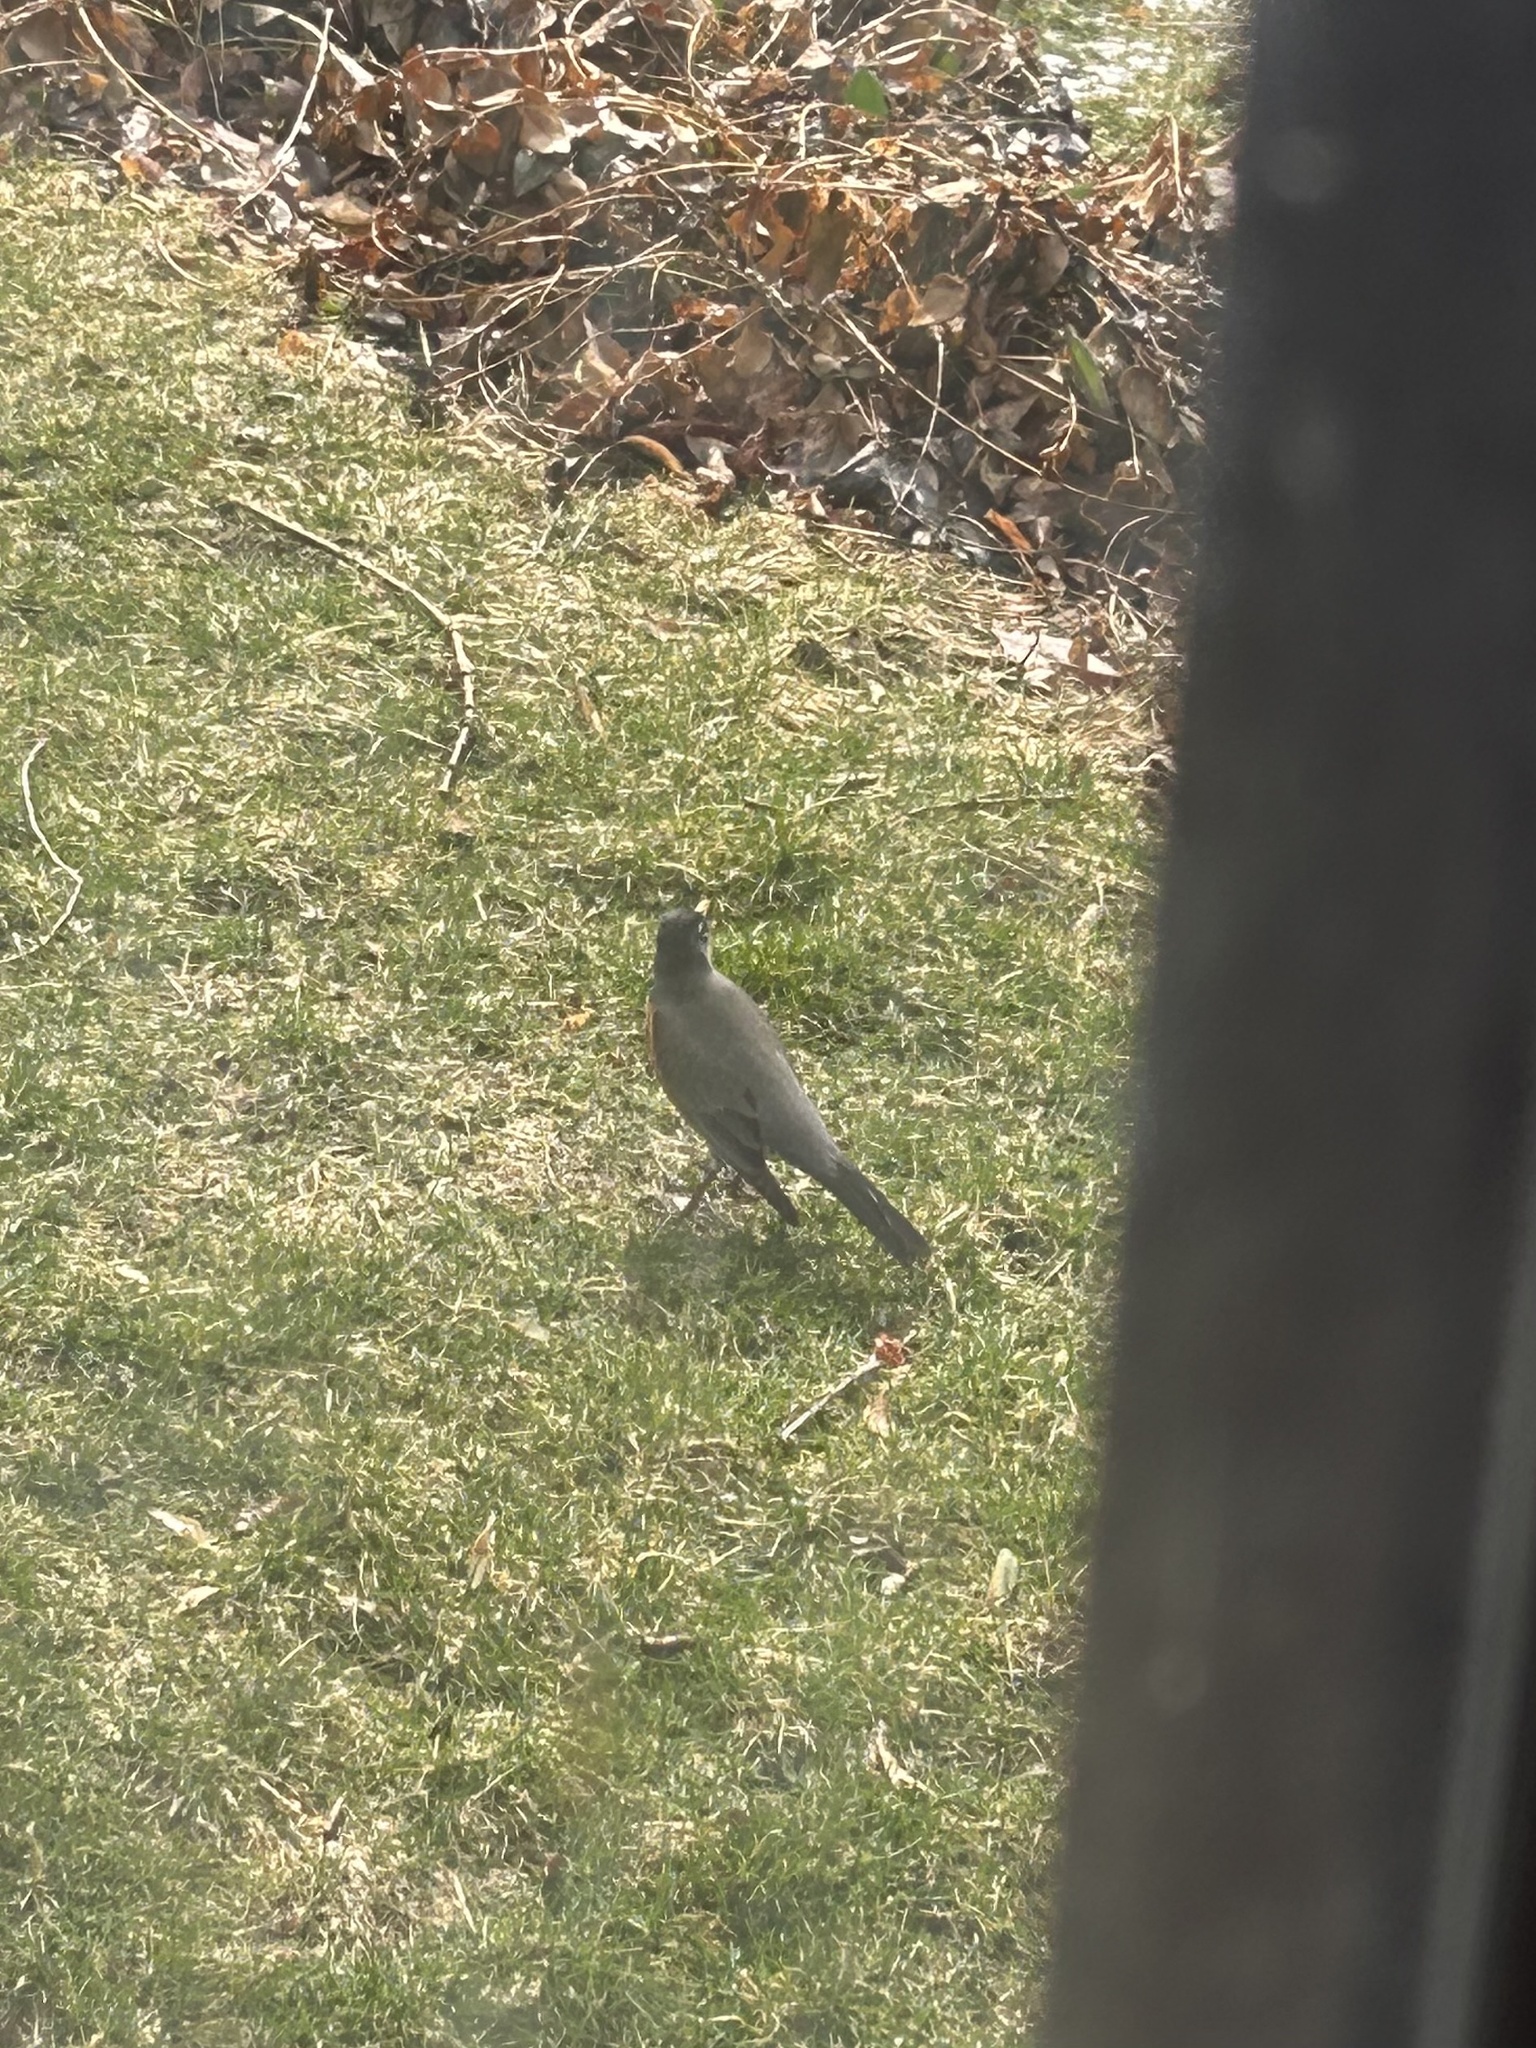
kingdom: Animalia
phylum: Chordata
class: Aves
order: Passeriformes
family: Turdidae
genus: Turdus
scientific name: Turdus migratorius
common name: American robin
